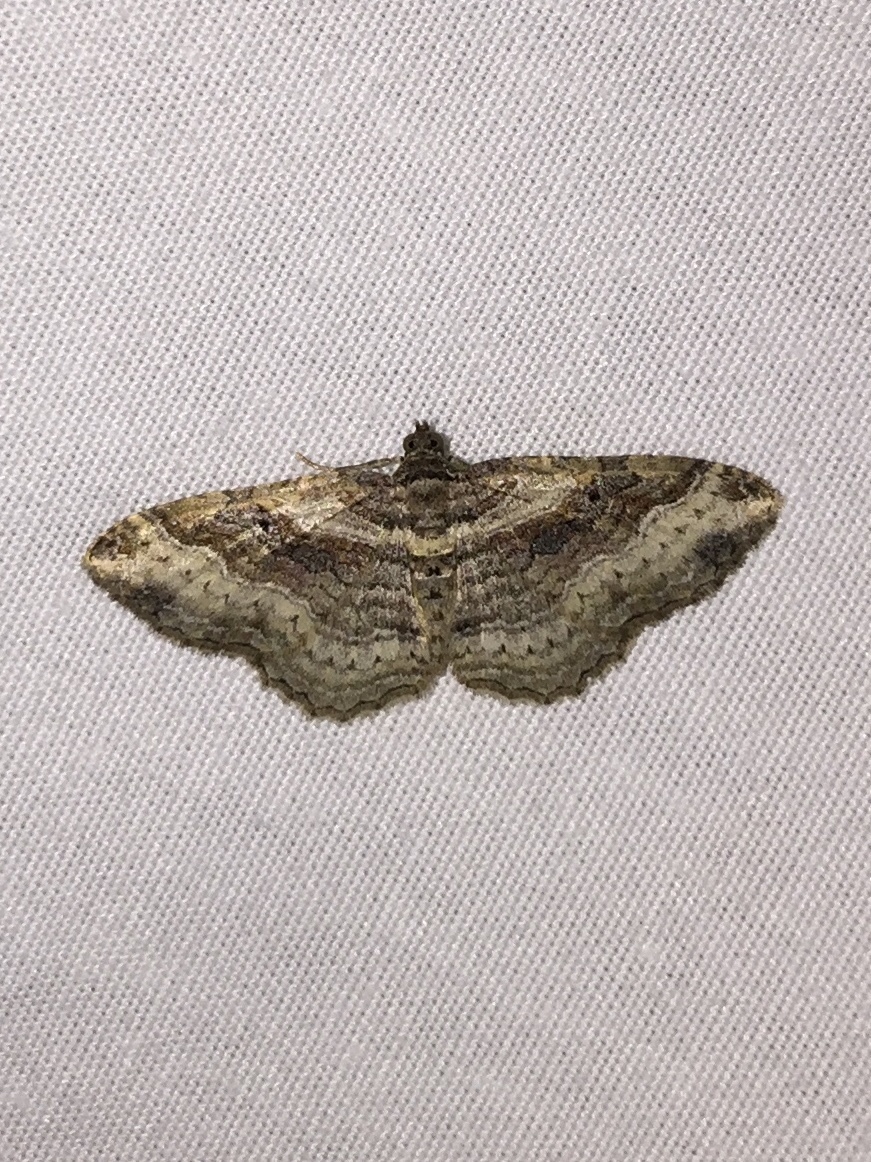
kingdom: Animalia
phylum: Arthropoda
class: Insecta
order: Lepidoptera
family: Geometridae
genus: Costaconvexa
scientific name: Costaconvexa centrostrigaria
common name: Bent-line carpet
